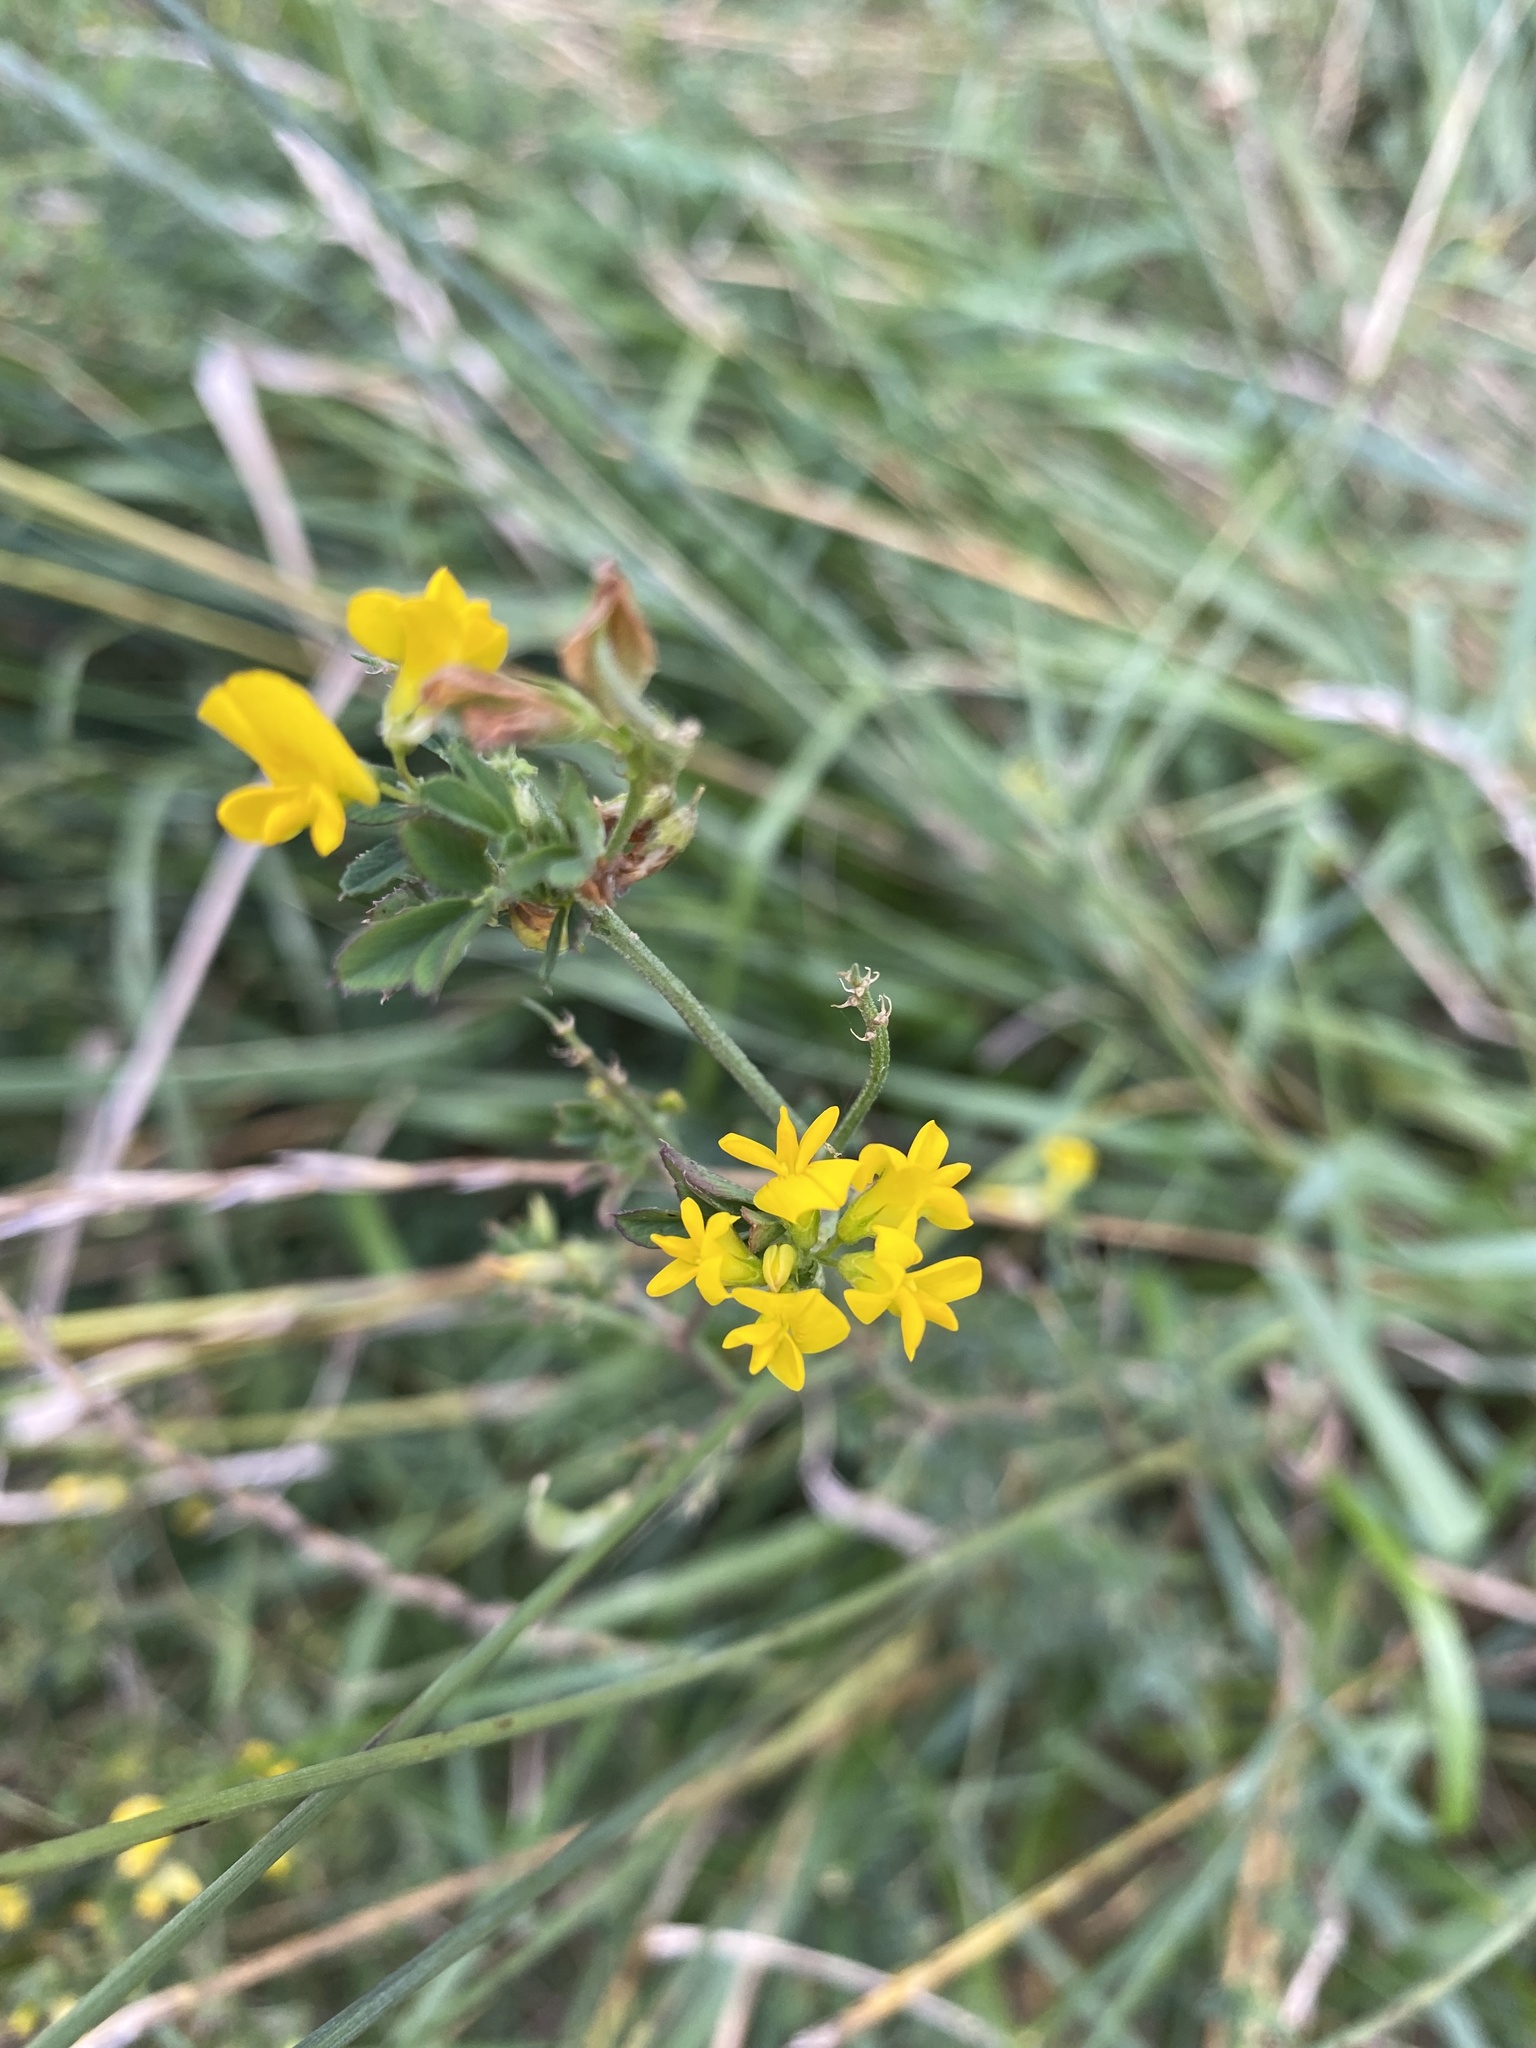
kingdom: Plantae
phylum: Tracheophyta
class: Magnoliopsida
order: Fabales
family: Fabaceae
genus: Medicago
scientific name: Medicago falcata
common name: Sickle medick
